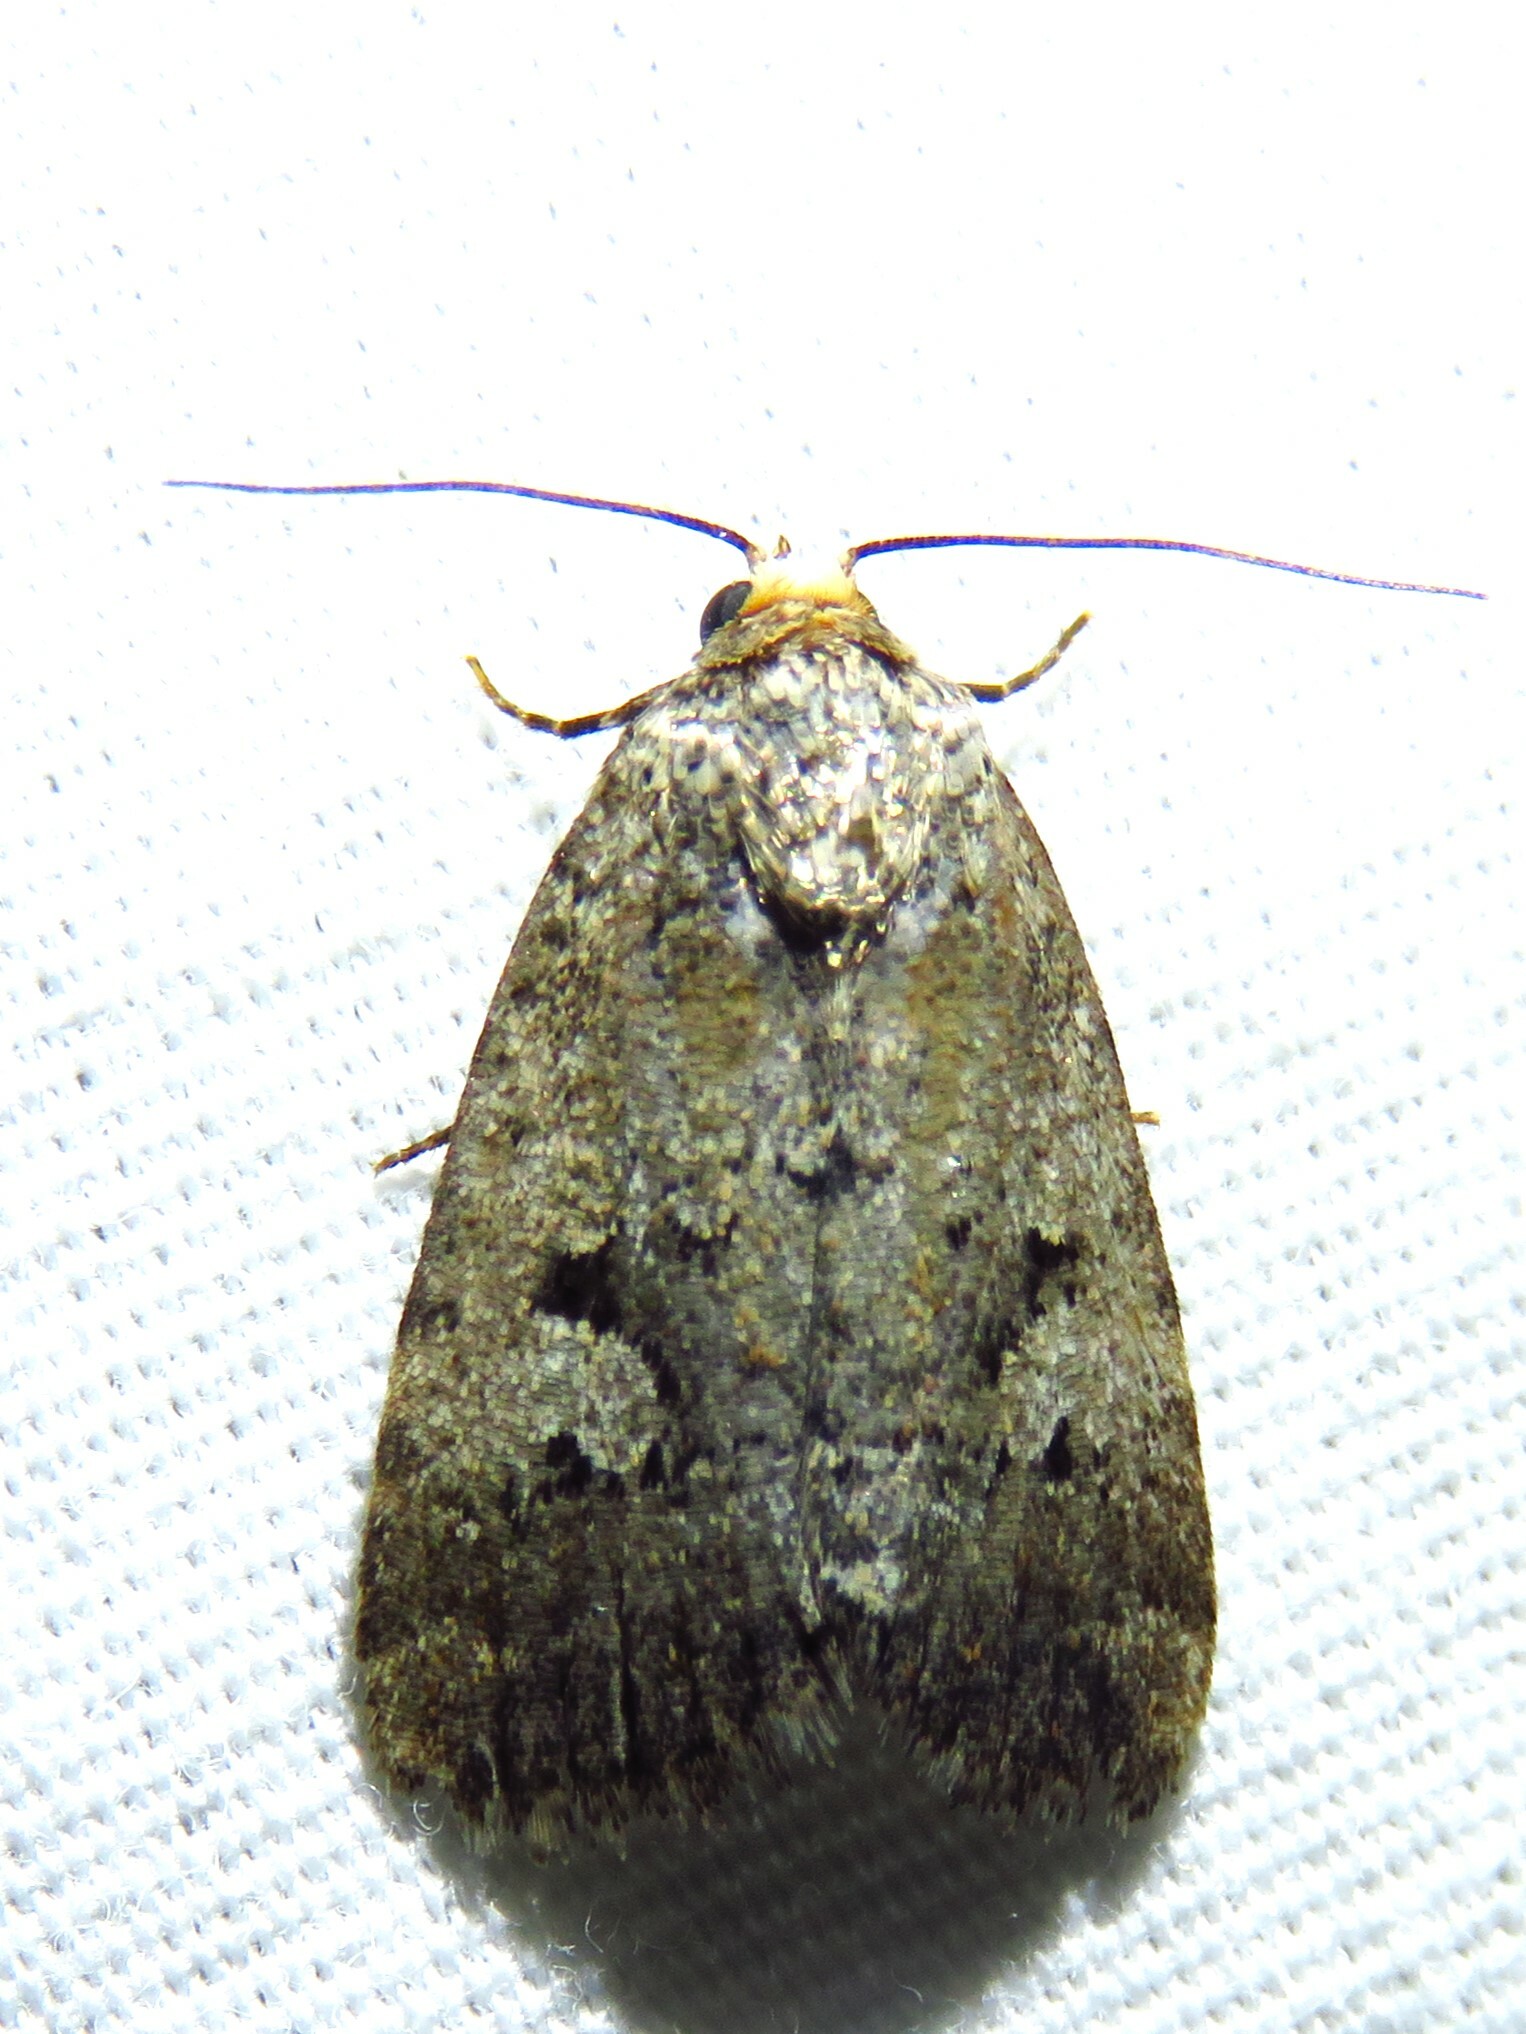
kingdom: Animalia
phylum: Arthropoda
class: Insecta
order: Lepidoptera
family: Noctuidae
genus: Elaphria
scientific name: Elaphria festivoides
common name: Festive midget
